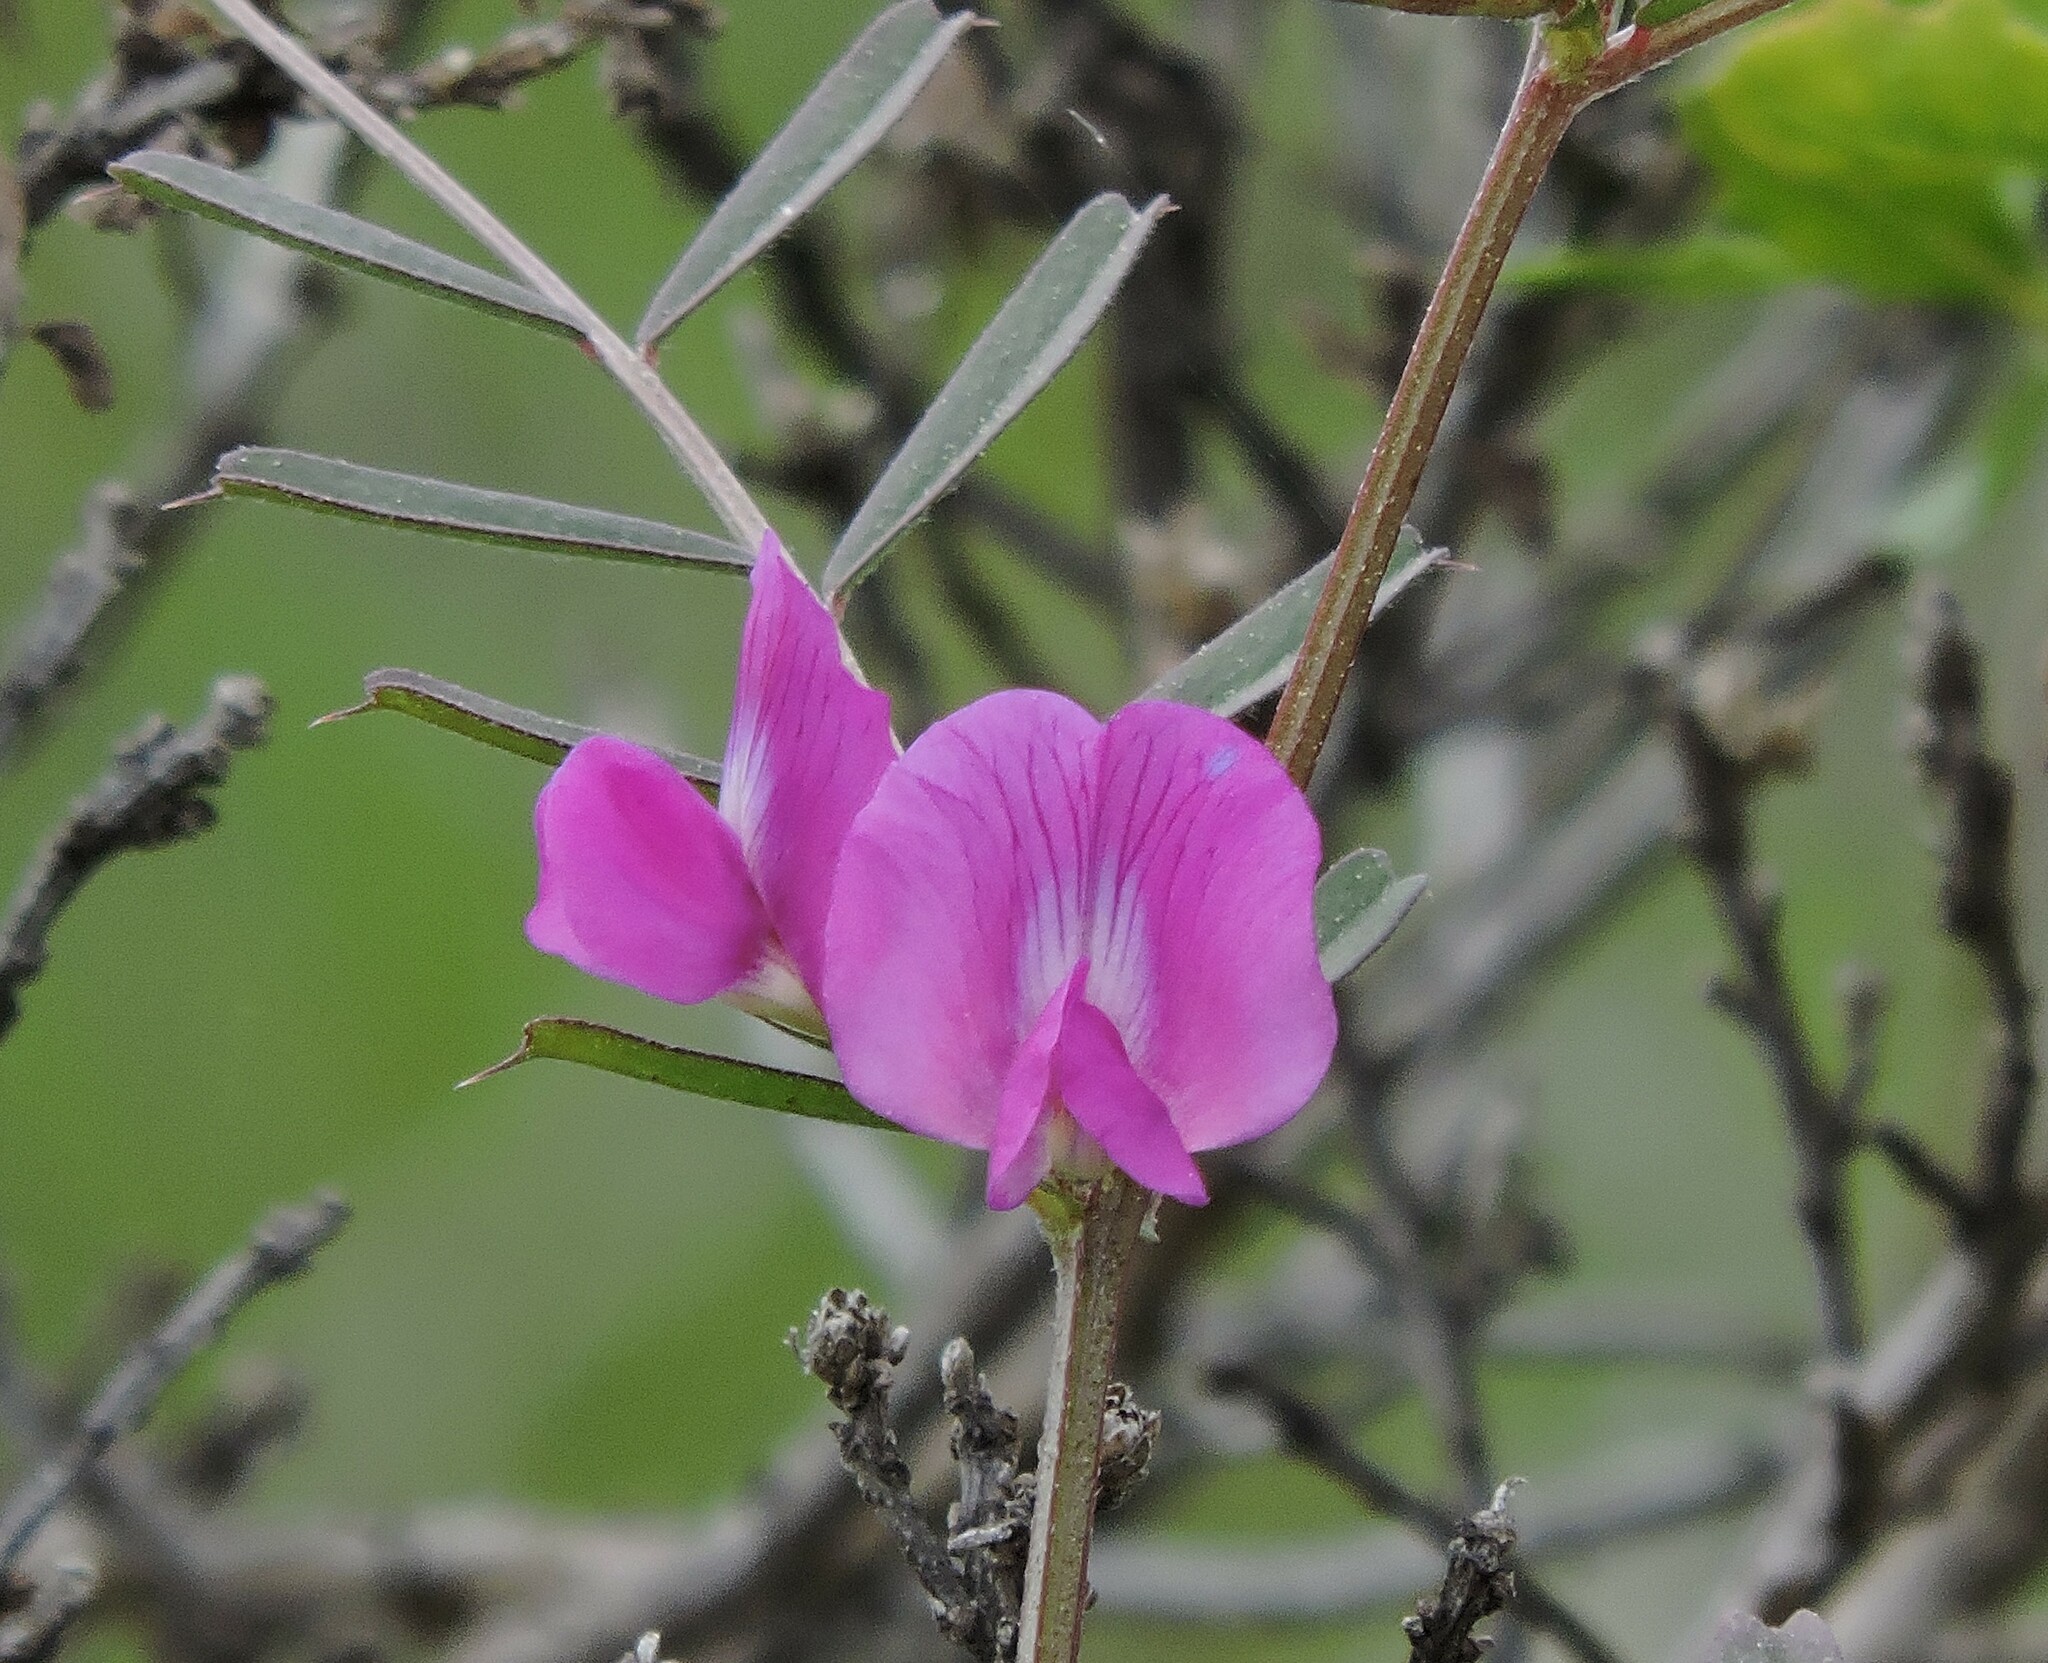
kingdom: Plantae
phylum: Tracheophyta
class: Magnoliopsida
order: Fabales
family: Fabaceae
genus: Vicia
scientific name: Vicia sativa
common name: Garden vetch
